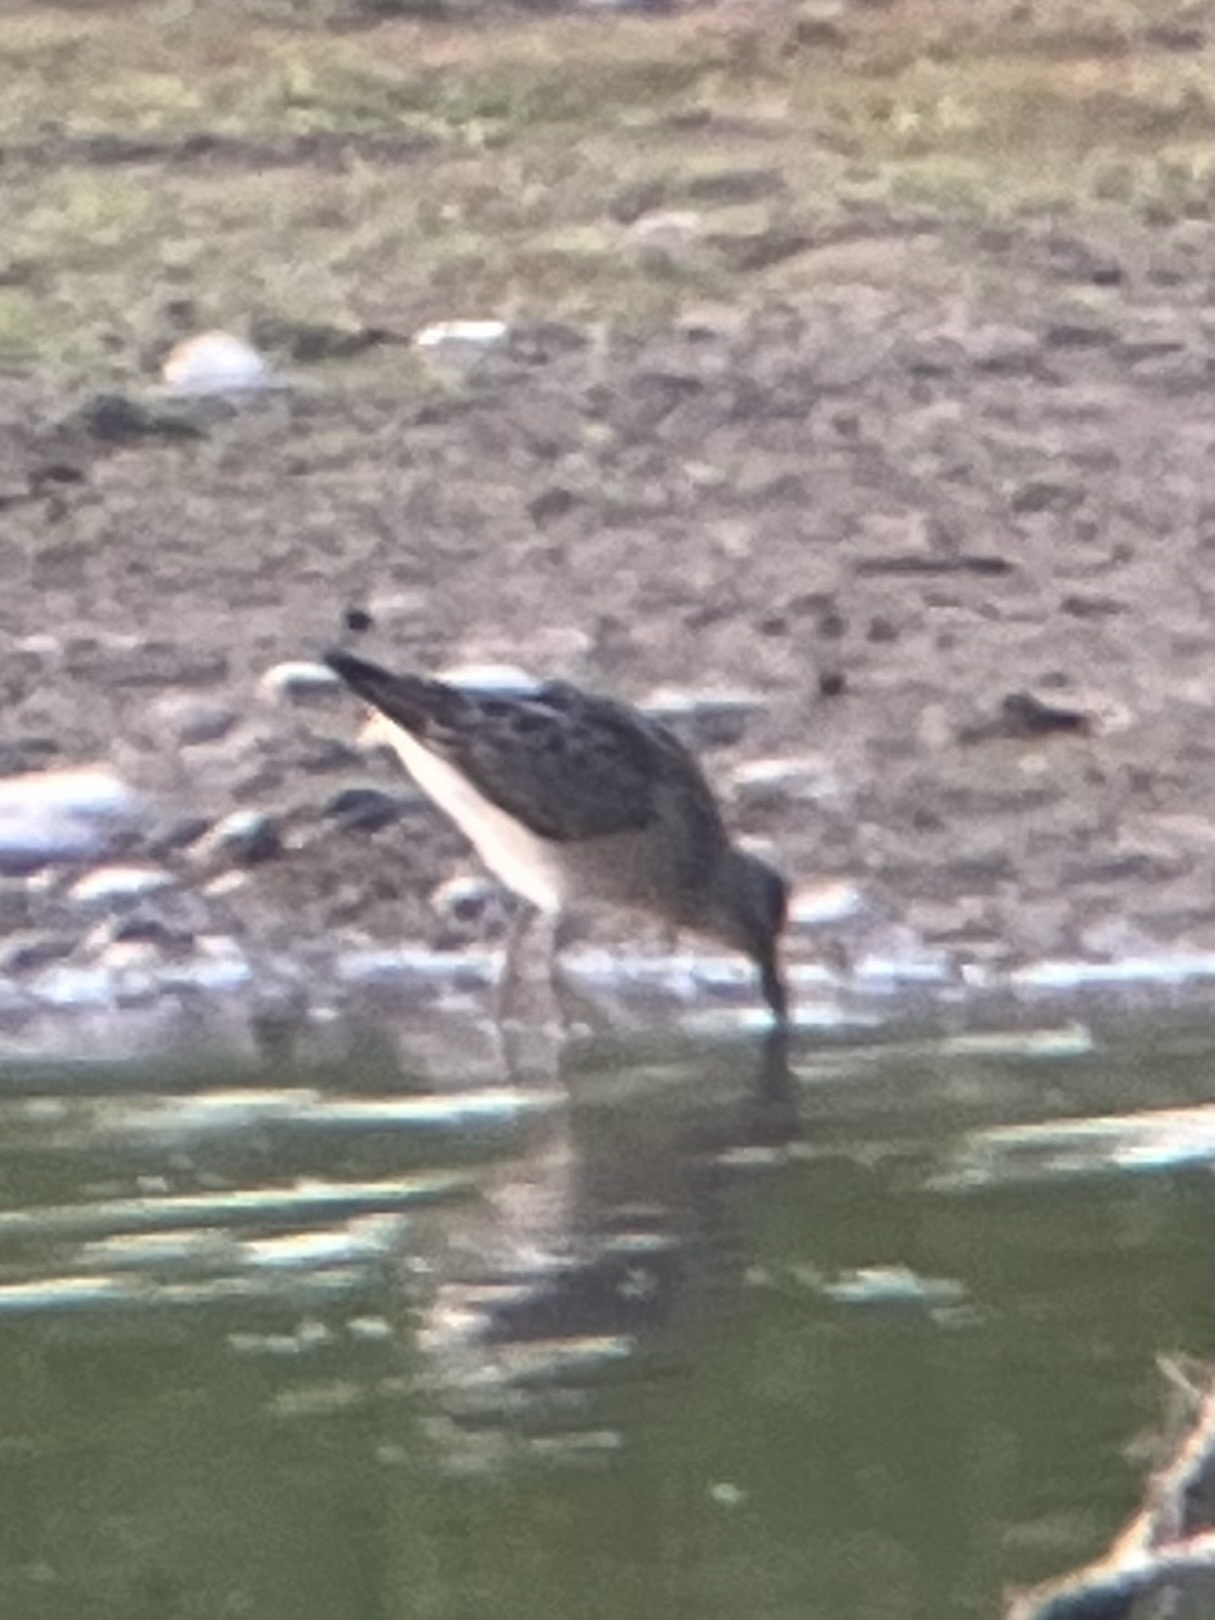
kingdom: Animalia
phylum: Chordata
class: Aves
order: Charadriiformes
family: Scolopacidae
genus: Calidris
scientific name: Calidris himantopus
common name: Stilt sandpiper
